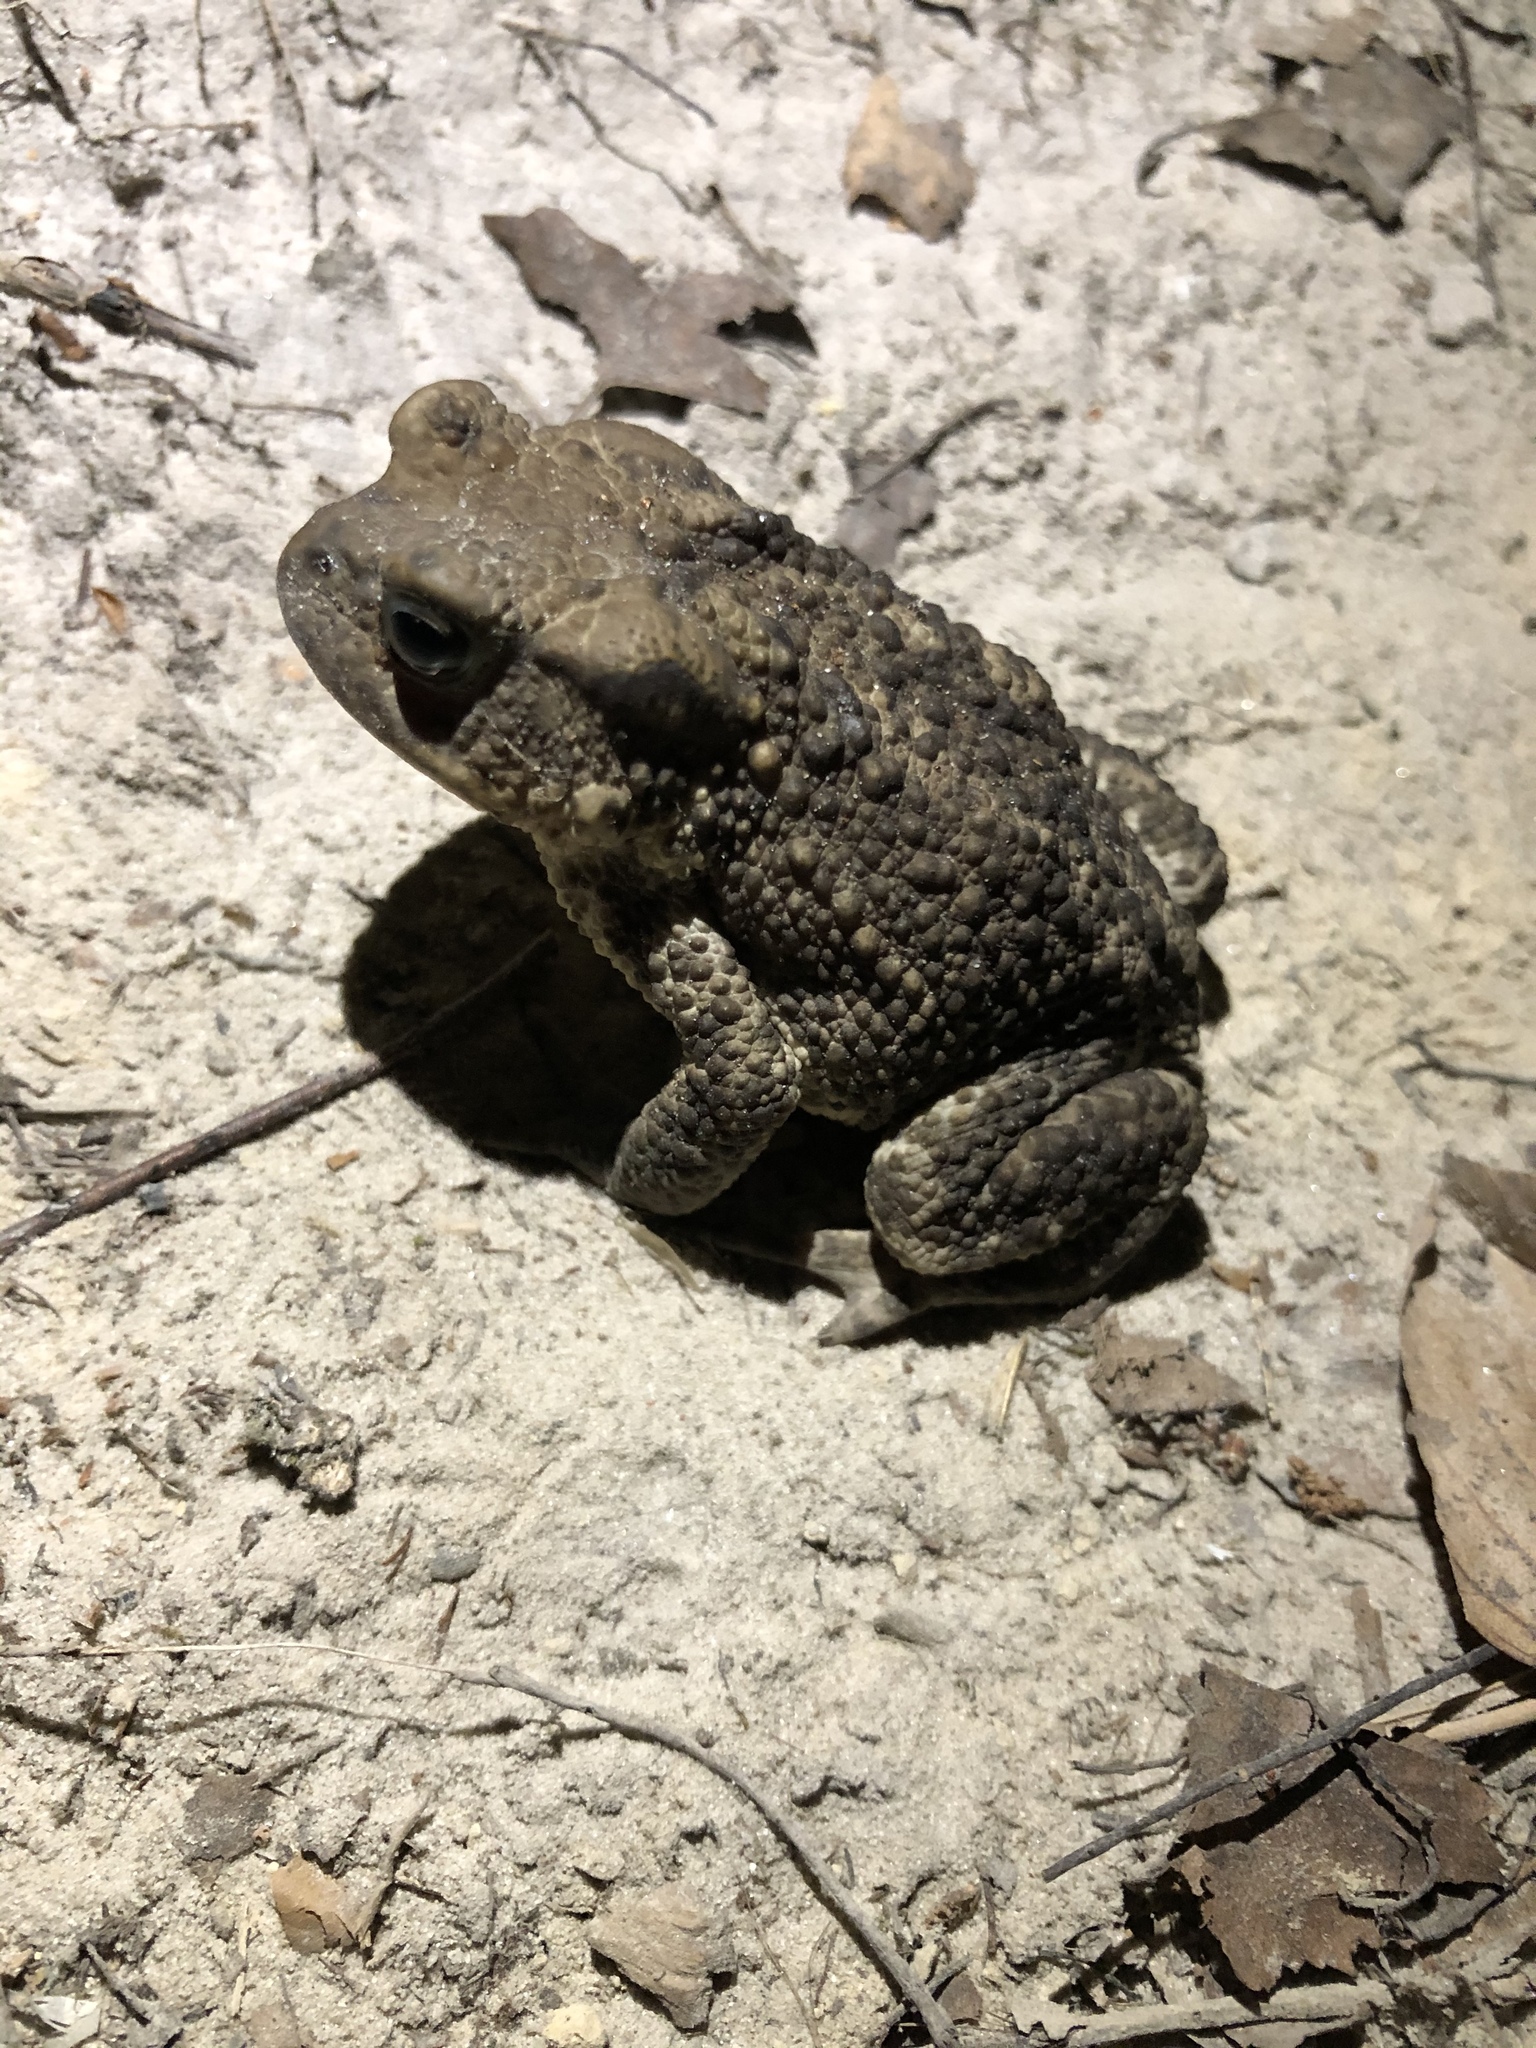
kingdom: Animalia
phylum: Chordata
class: Amphibia
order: Anura
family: Bufonidae
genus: Bufo
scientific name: Bufo bufo
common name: Common toad
